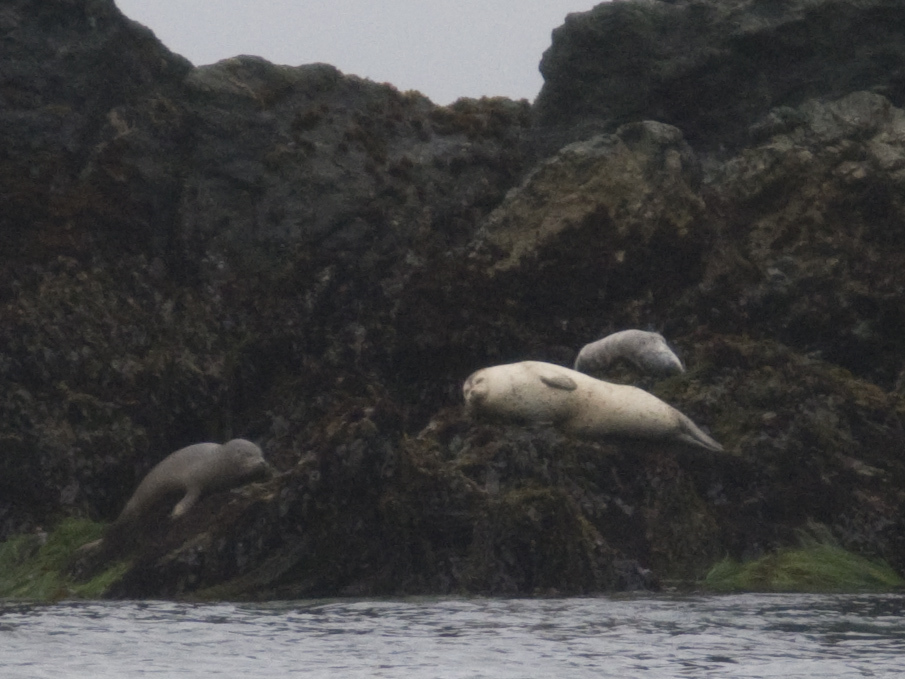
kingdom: Animalia
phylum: Chordata
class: Mammalia
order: Carnivora
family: Phocidae
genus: Phoca
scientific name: Phoca vitulina
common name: Harbor seal
